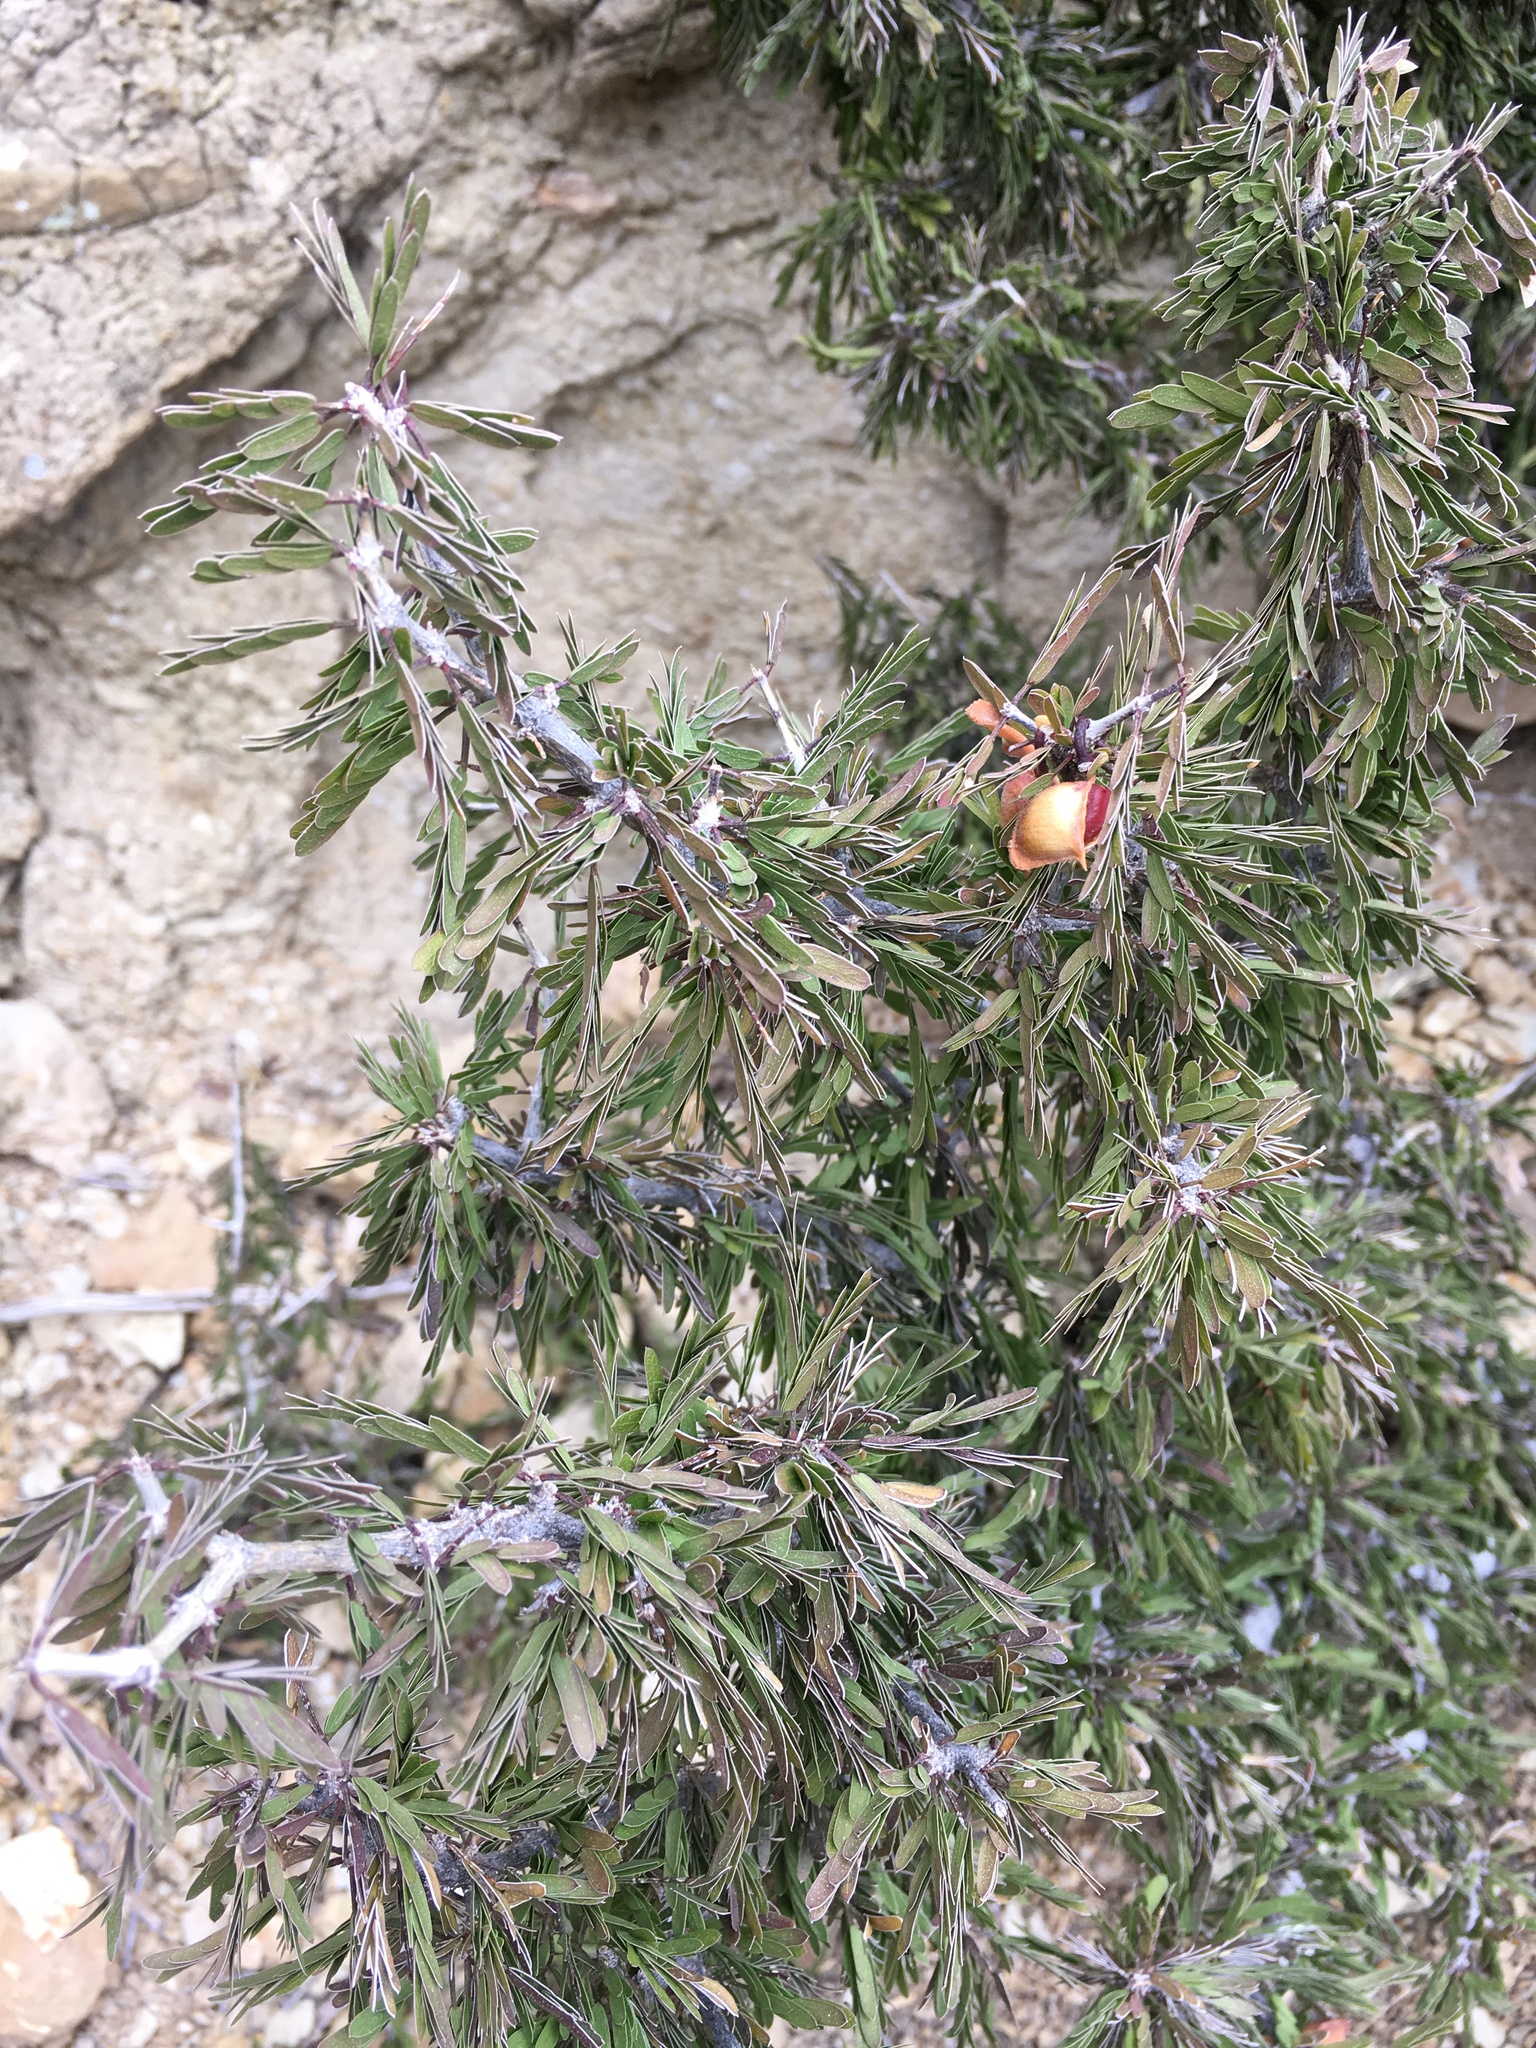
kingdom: Plantae
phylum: Tracheophyta
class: Magnoliopsida
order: Zygophyllales
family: Zygophyllaceae
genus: Porlieria
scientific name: Porlieria angustifolia
